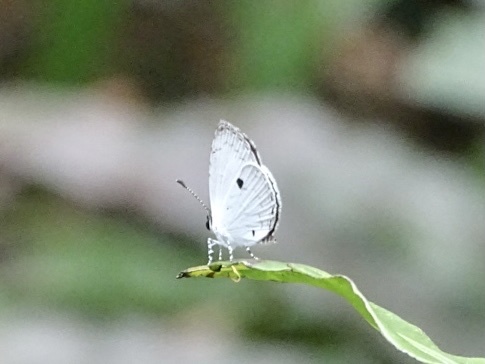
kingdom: Animalia
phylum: Arthropoda
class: Insecta
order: Lepidoptera
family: Lycaenidae
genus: Neopithecops
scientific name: Neopithecops zalmora
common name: Quaker
